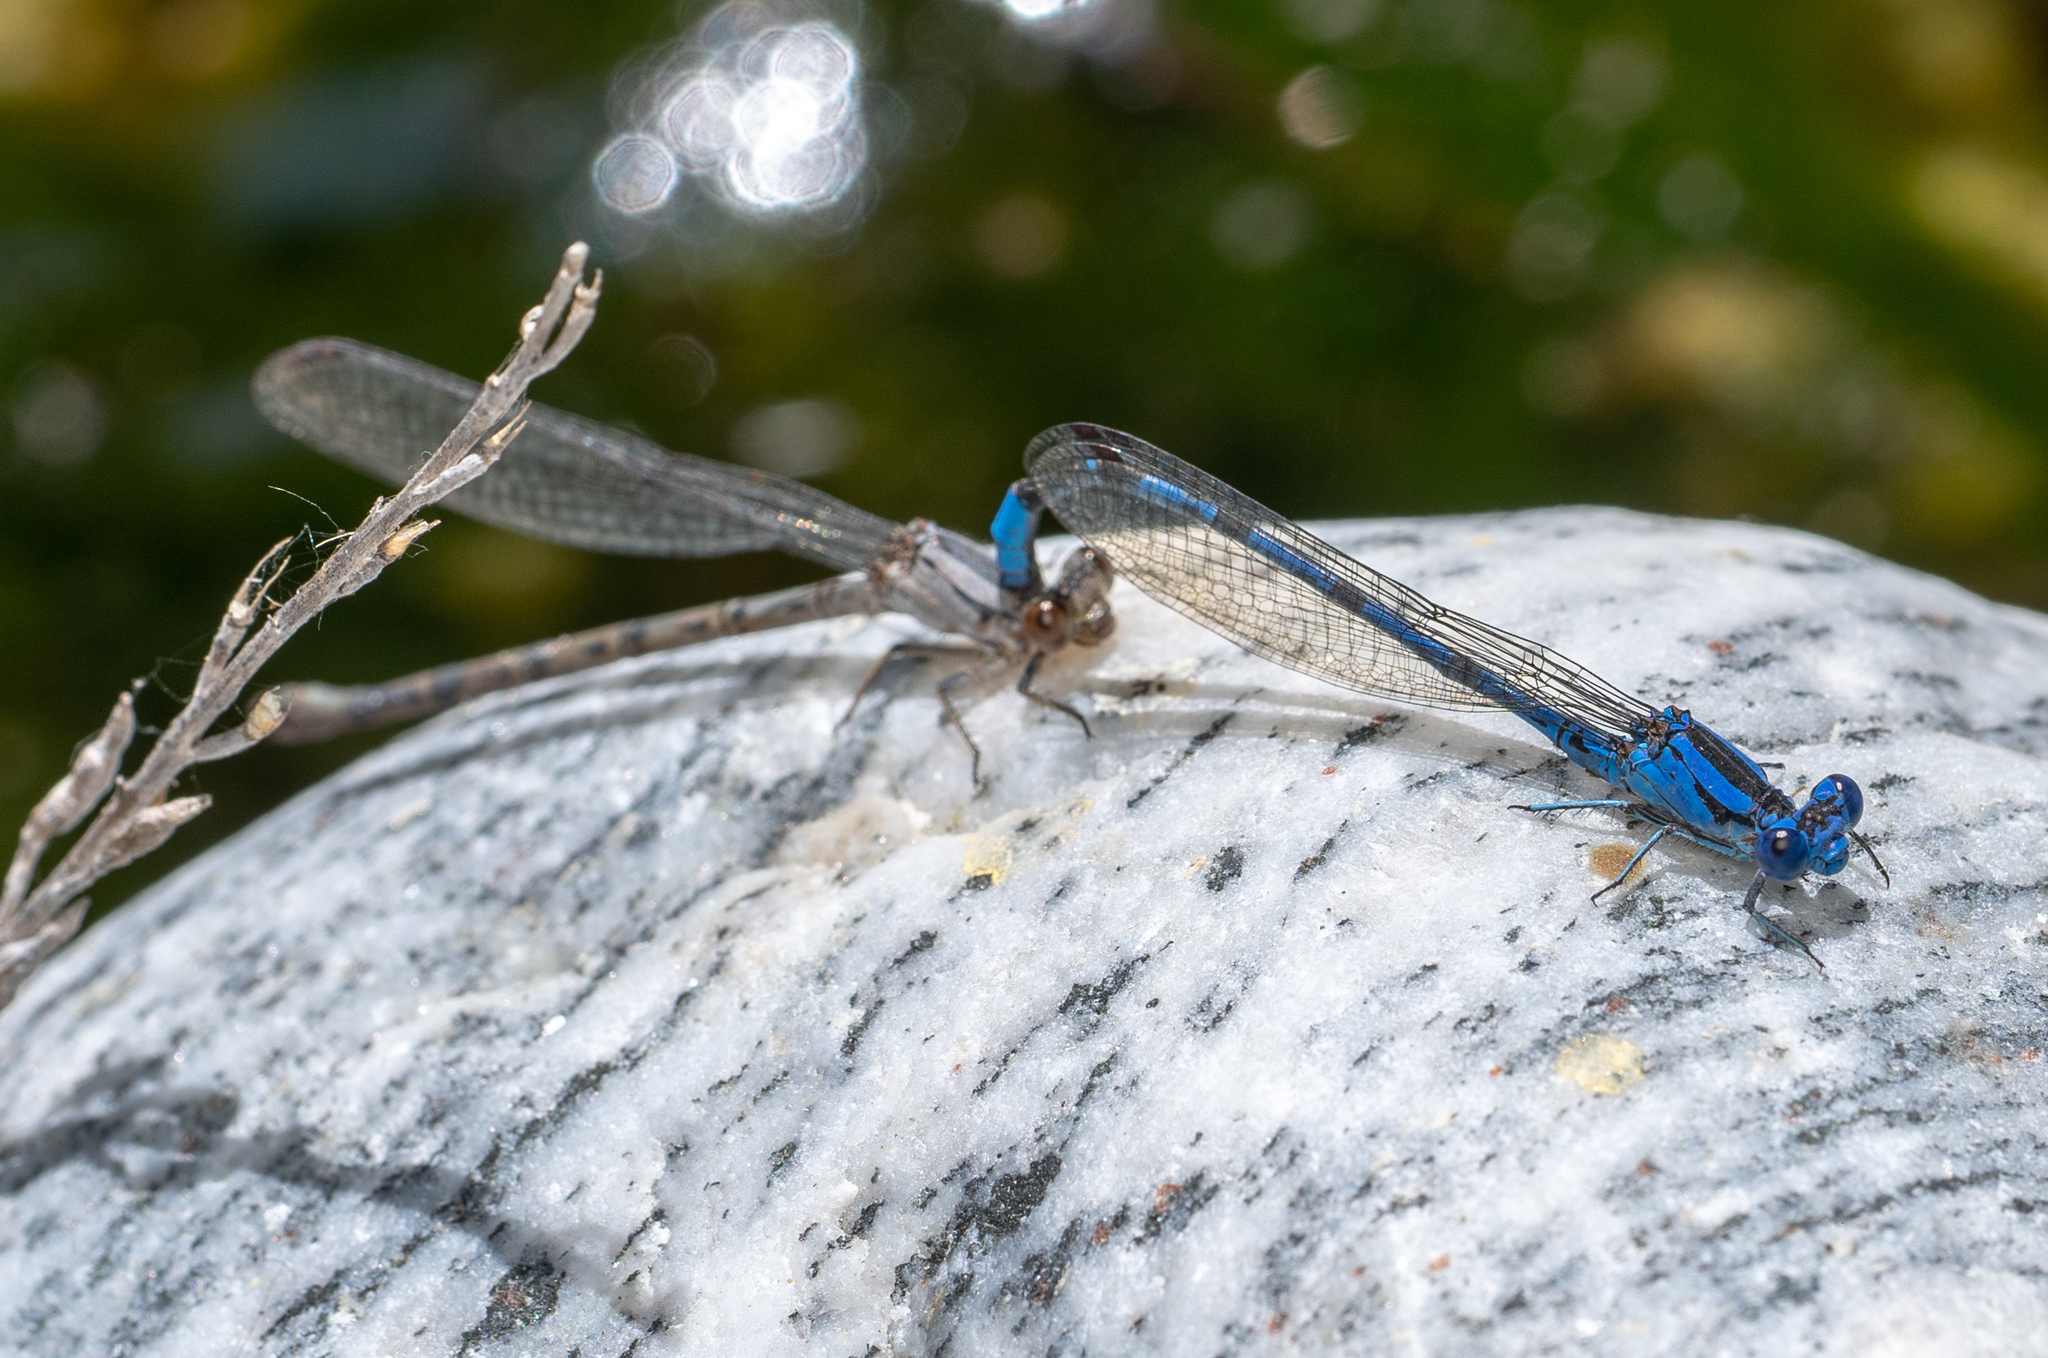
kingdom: Animalia
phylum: Arthropoda
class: Insecta
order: Odonata
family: Coenagrionidae
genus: Argia
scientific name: Argia vivida
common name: Vivid dancer
